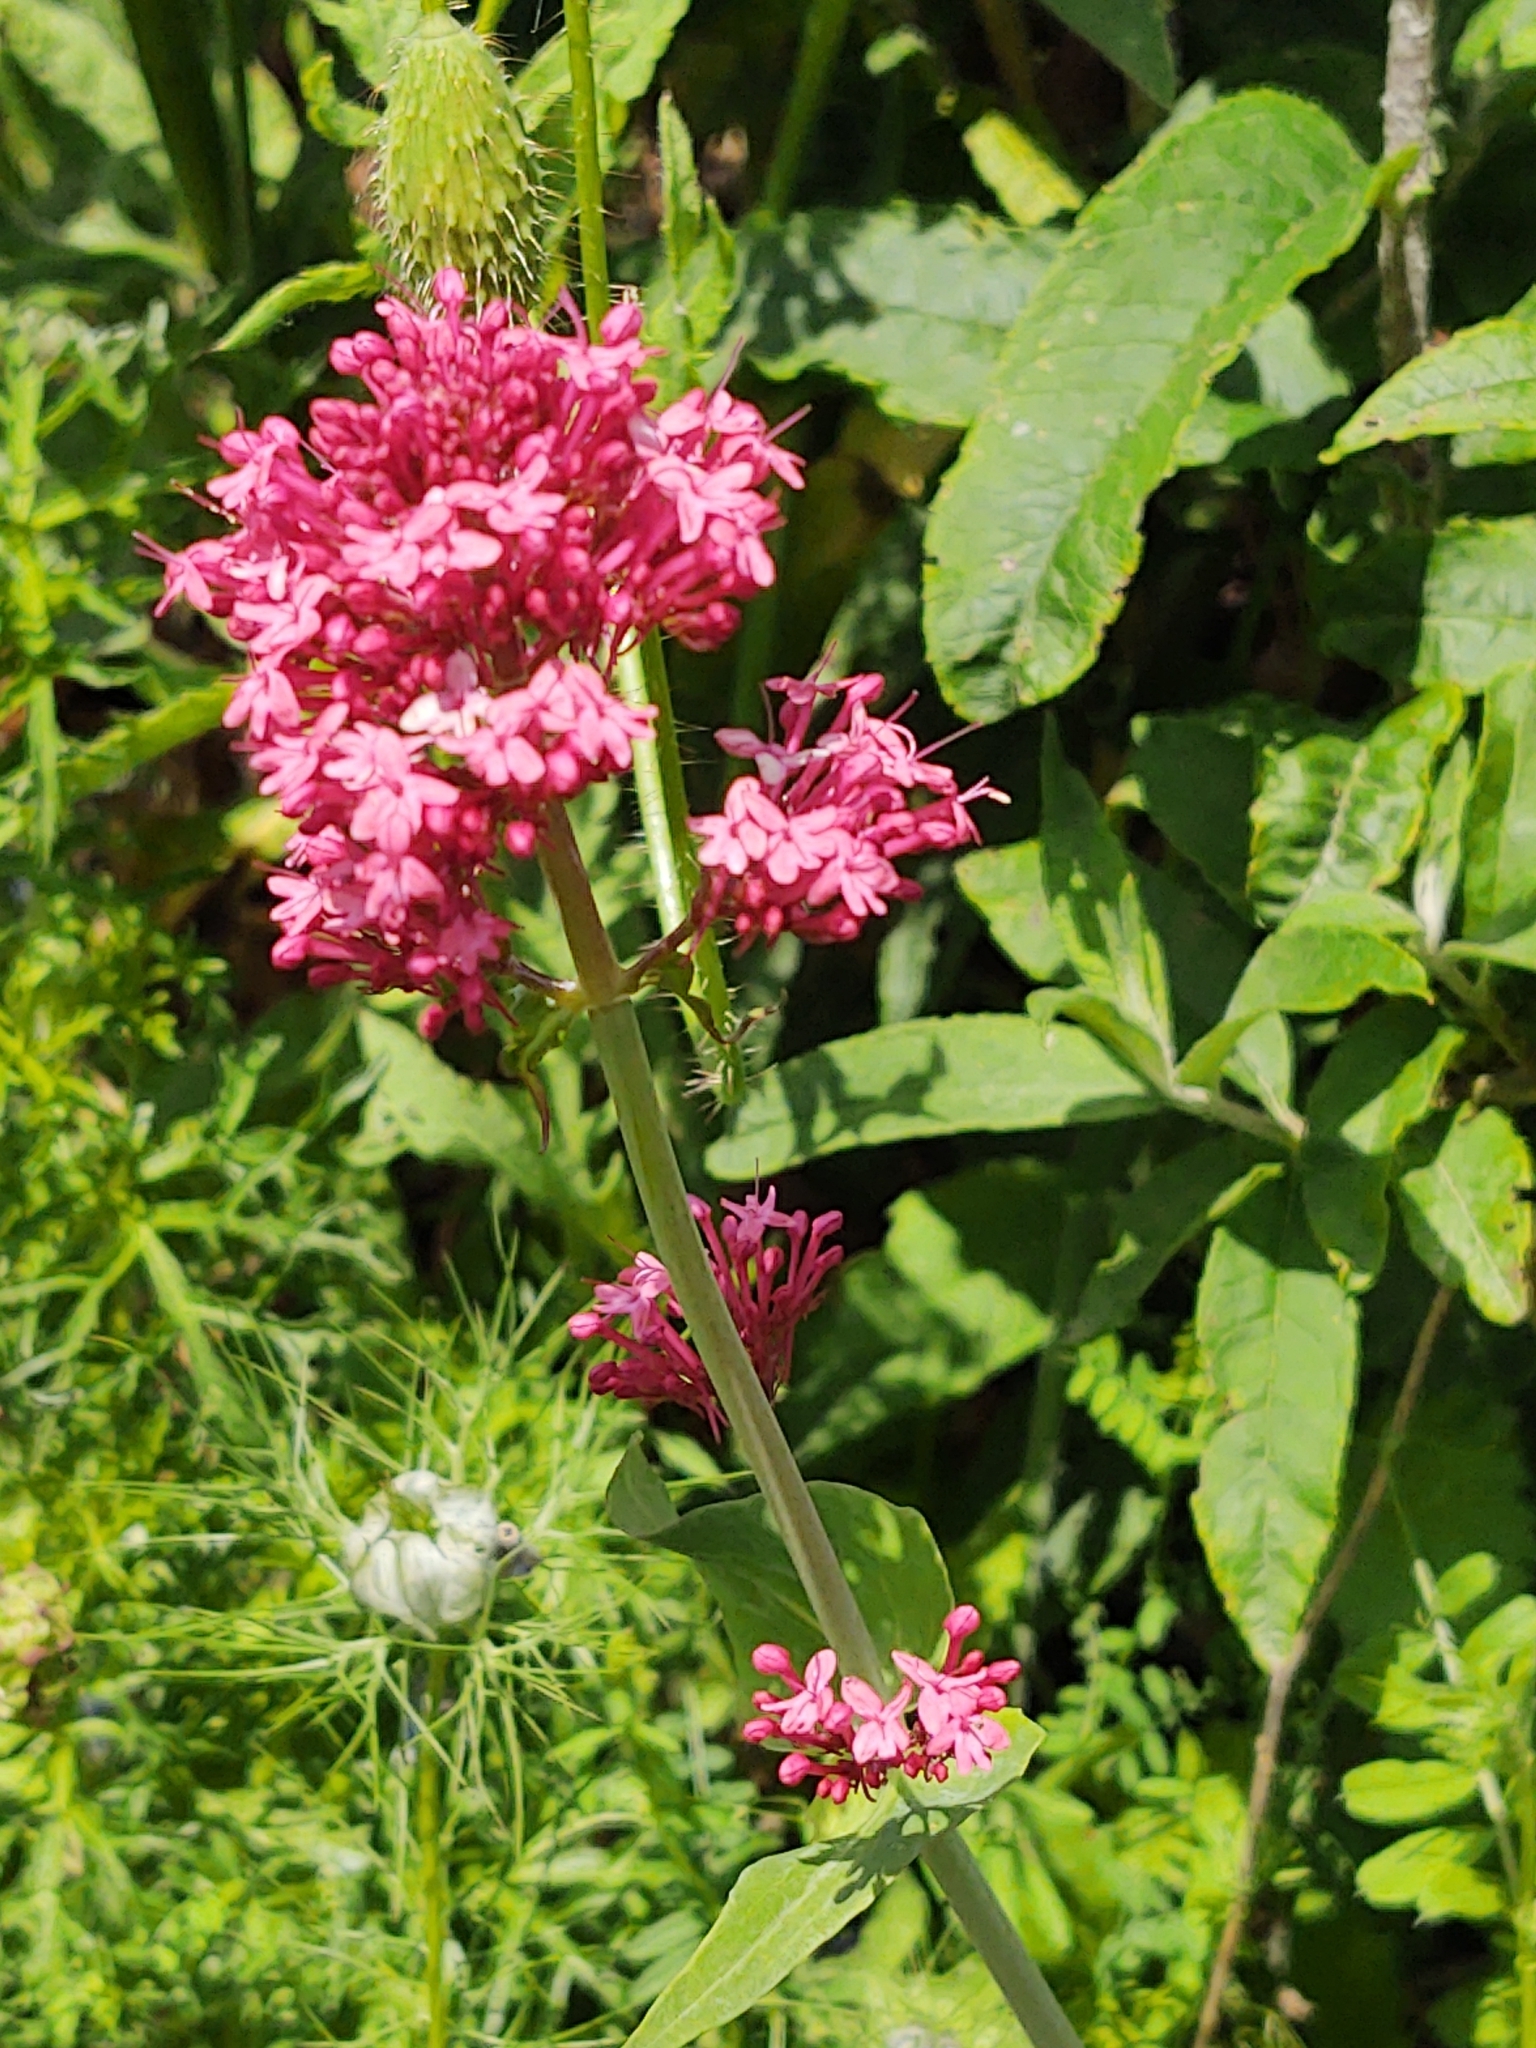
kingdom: Plantae
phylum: Tracheophyta
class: Magnoliopsida
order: Dipsacales
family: Caprifoliaceae
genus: Centranthus
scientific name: Centranthus ruber
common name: Red valerian
